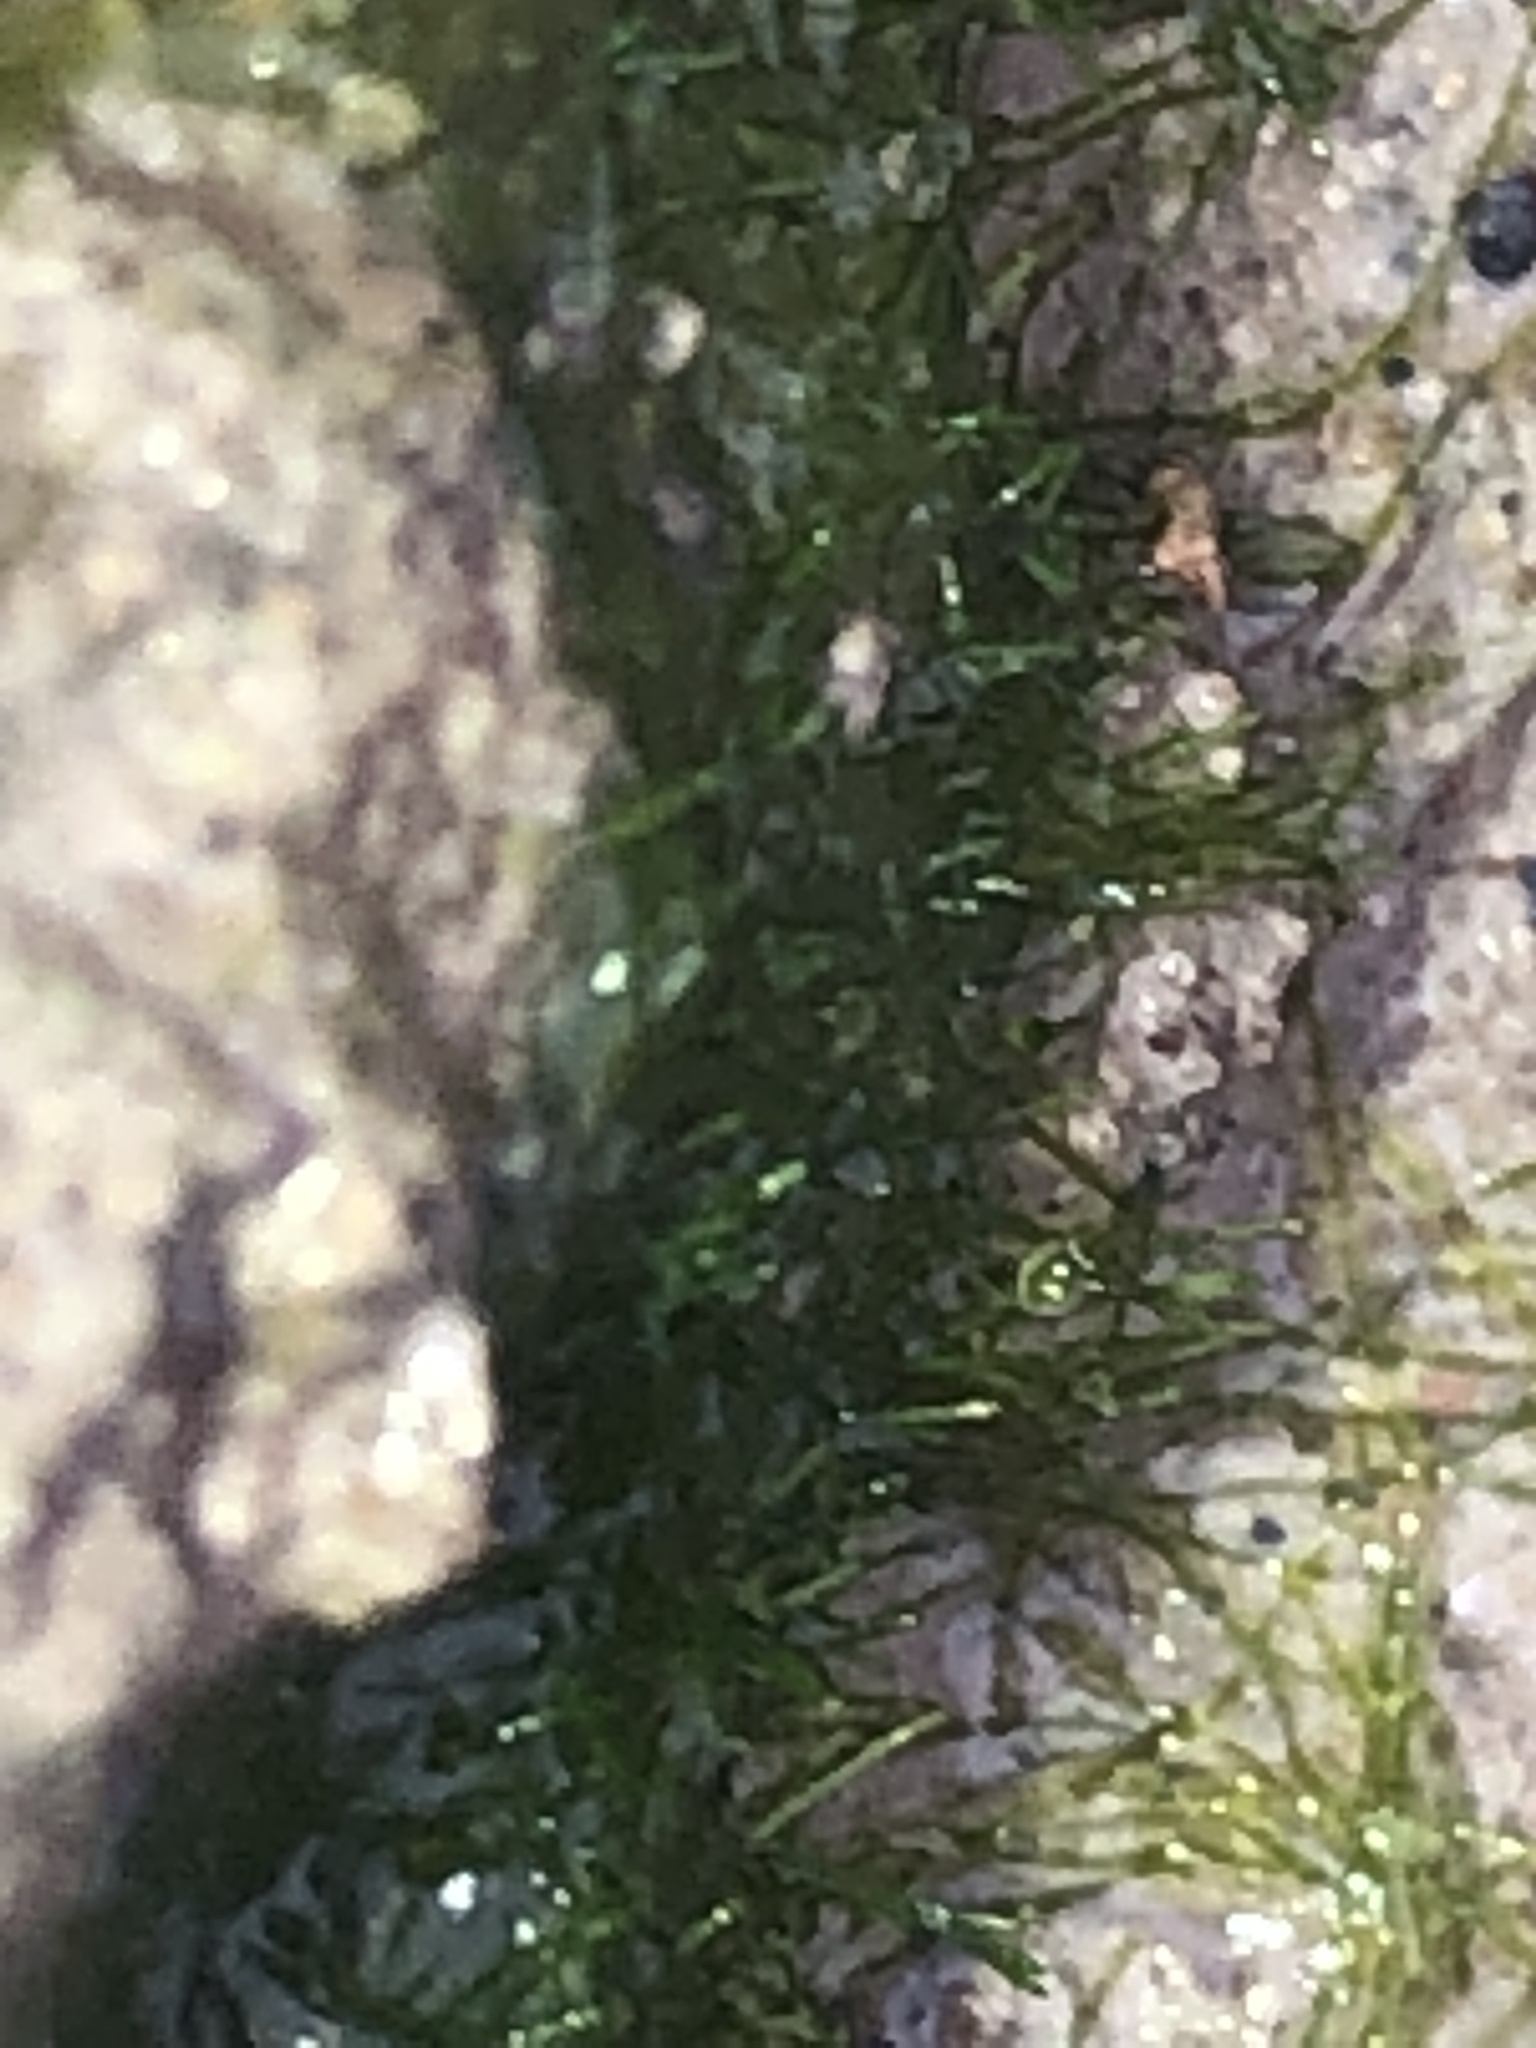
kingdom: Plantae
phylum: Chlorophyta
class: Ulvophyceae
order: Bryopsidales
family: Udoteaceae
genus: Chlorodesmis
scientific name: Chlorodesmis fastigiata
